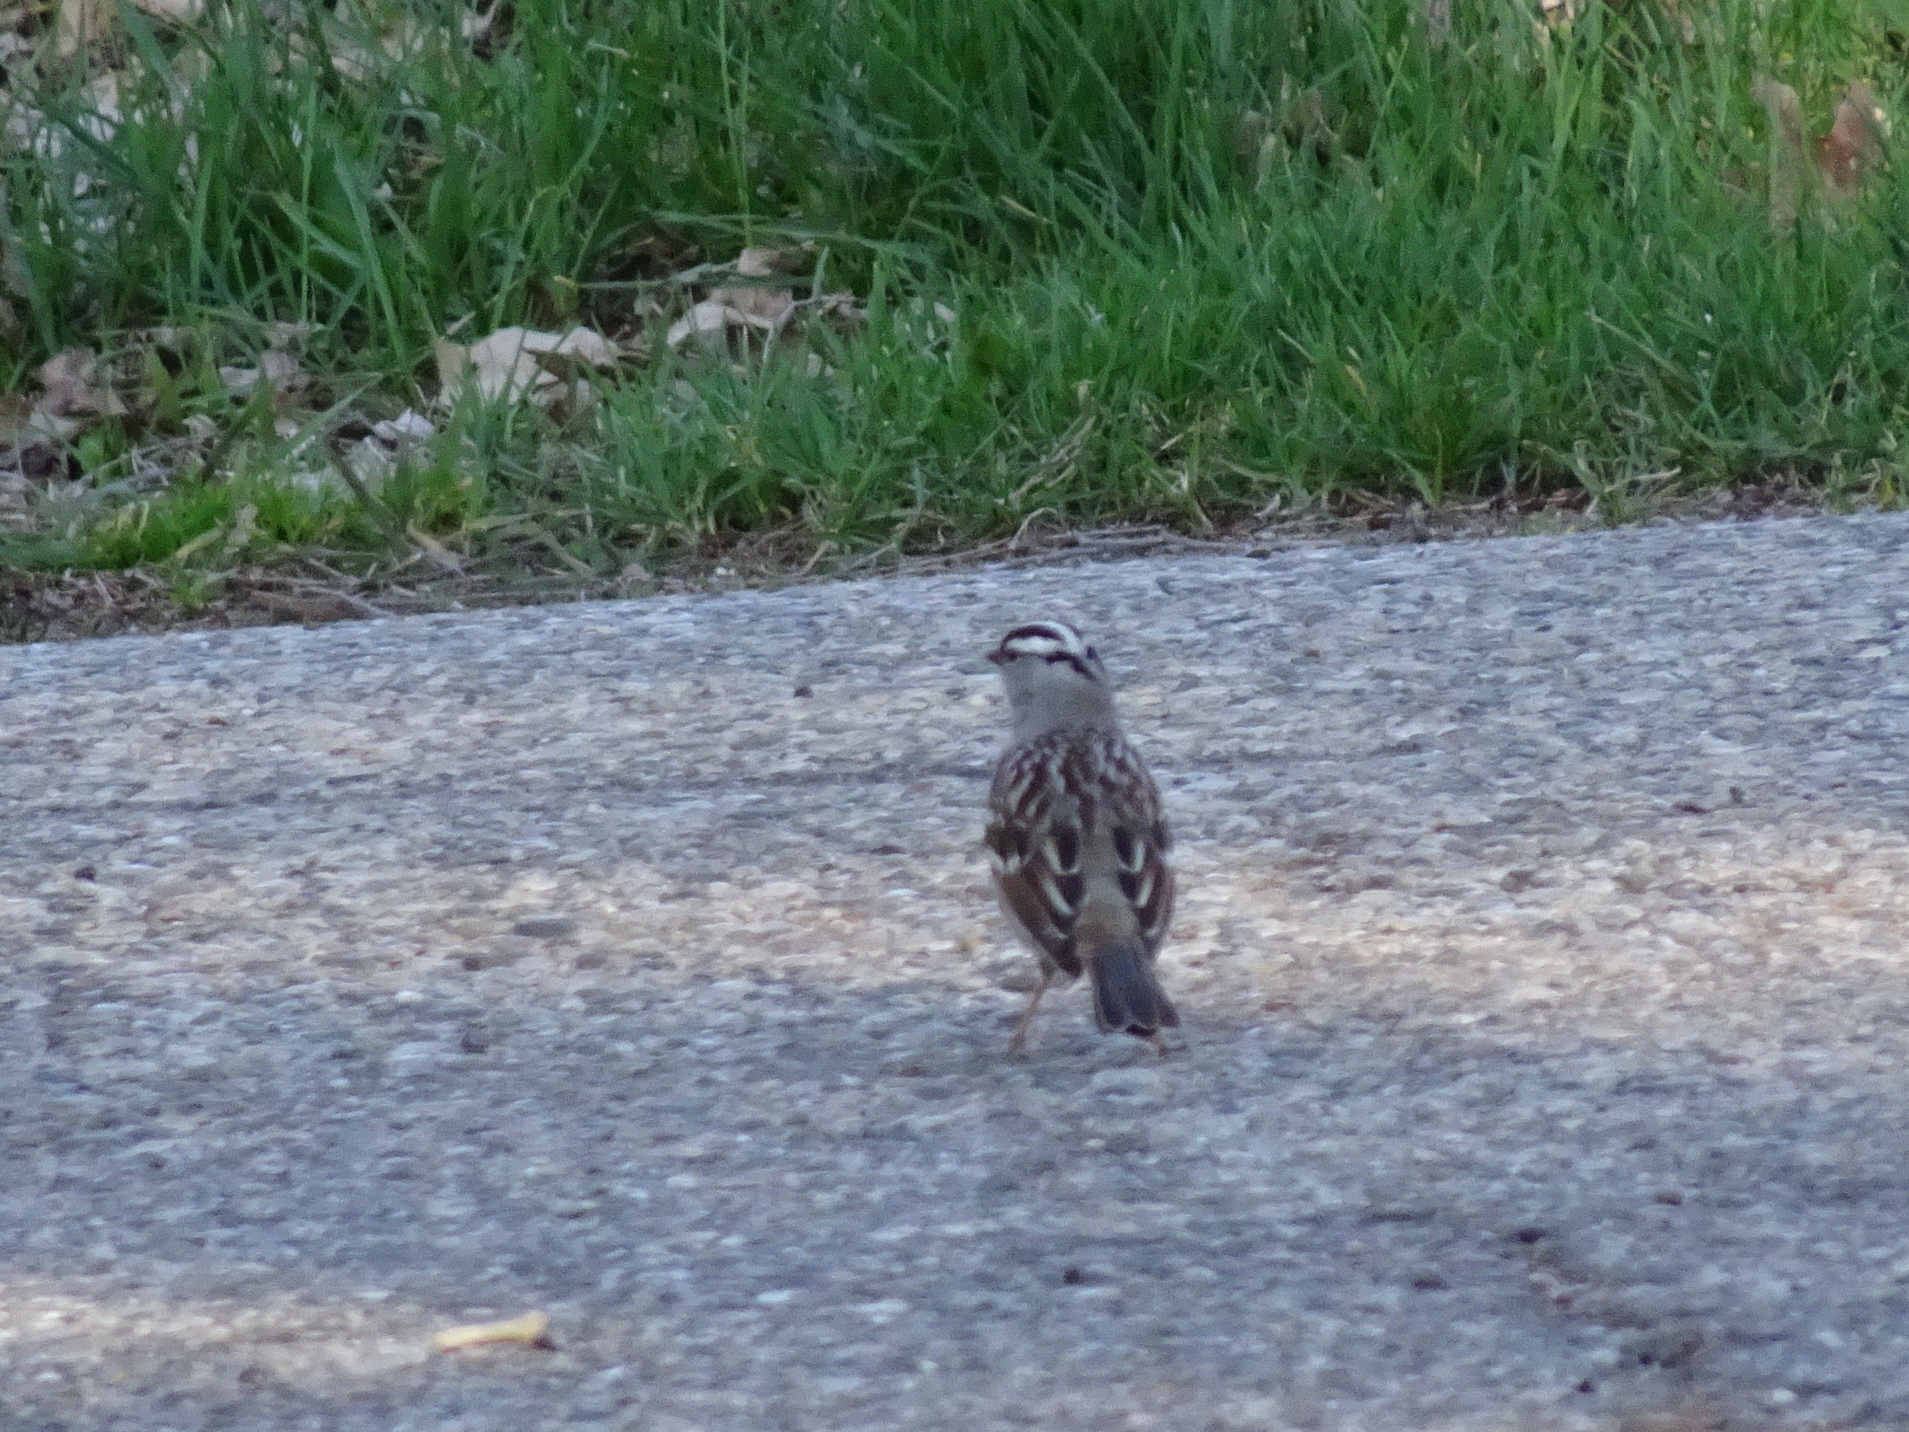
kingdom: Animalia
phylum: Chordata
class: Aves
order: Passeriformes
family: Passerellidae
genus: Zonotrichia
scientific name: Zonotrichia leucophrys
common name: White-crowned sparrow
